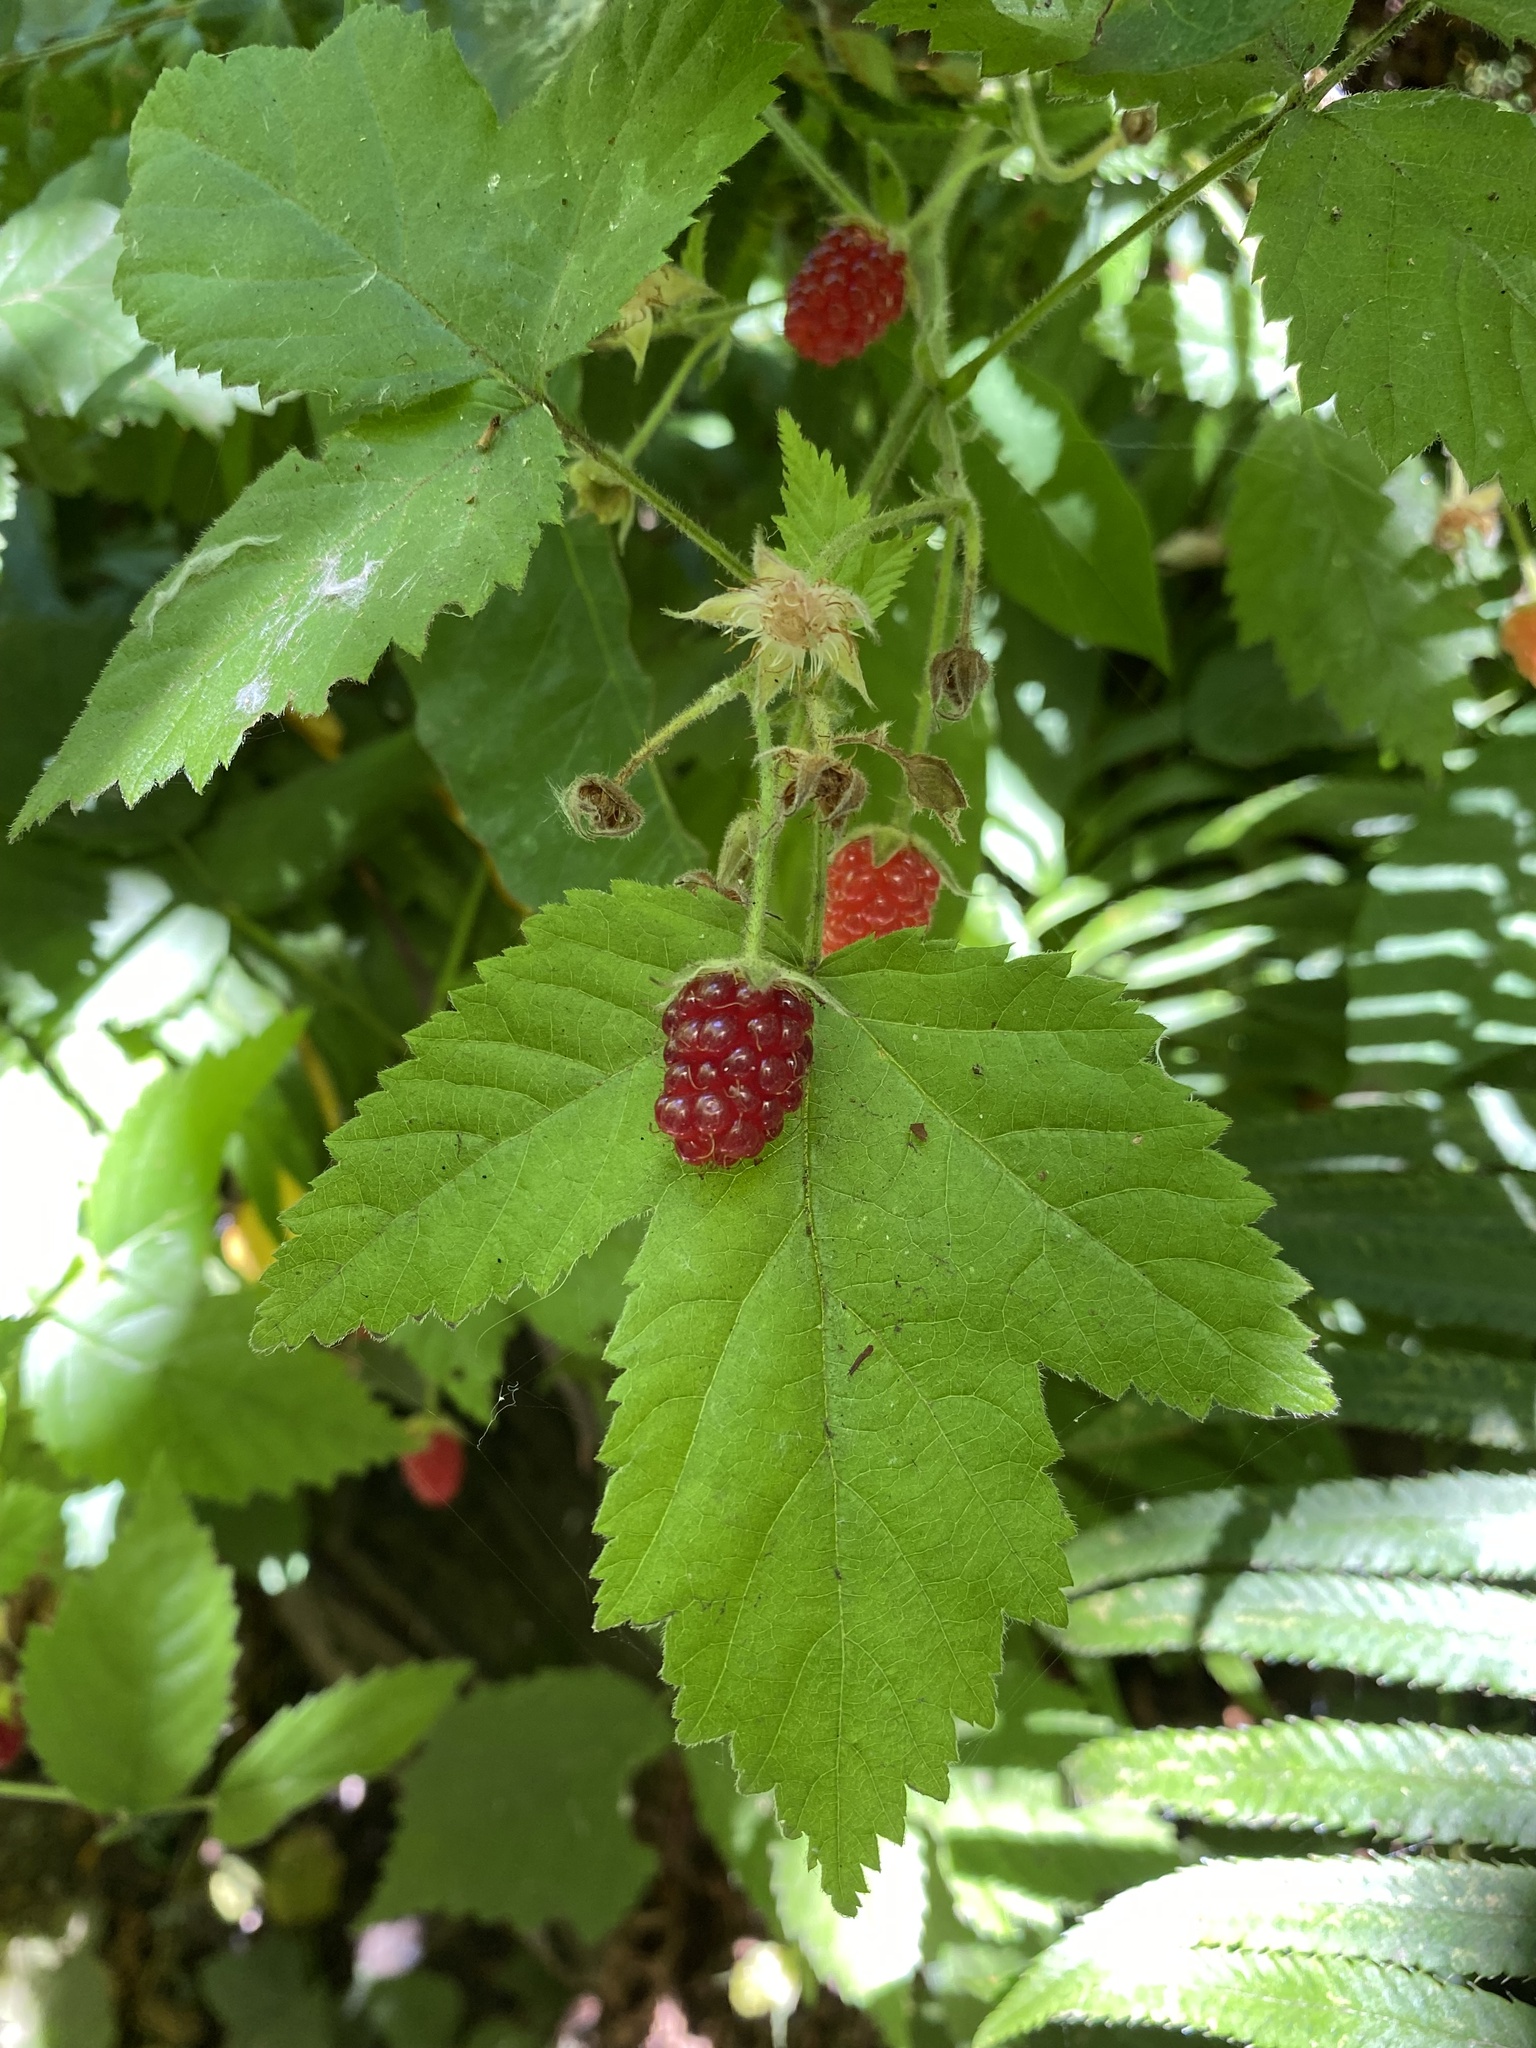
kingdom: Plantae
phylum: Tracheophyta
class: Magnoliopsida
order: Rosales
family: Rosaceae
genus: Rubus
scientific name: Rubus ursinus
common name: Pacific blackberry
